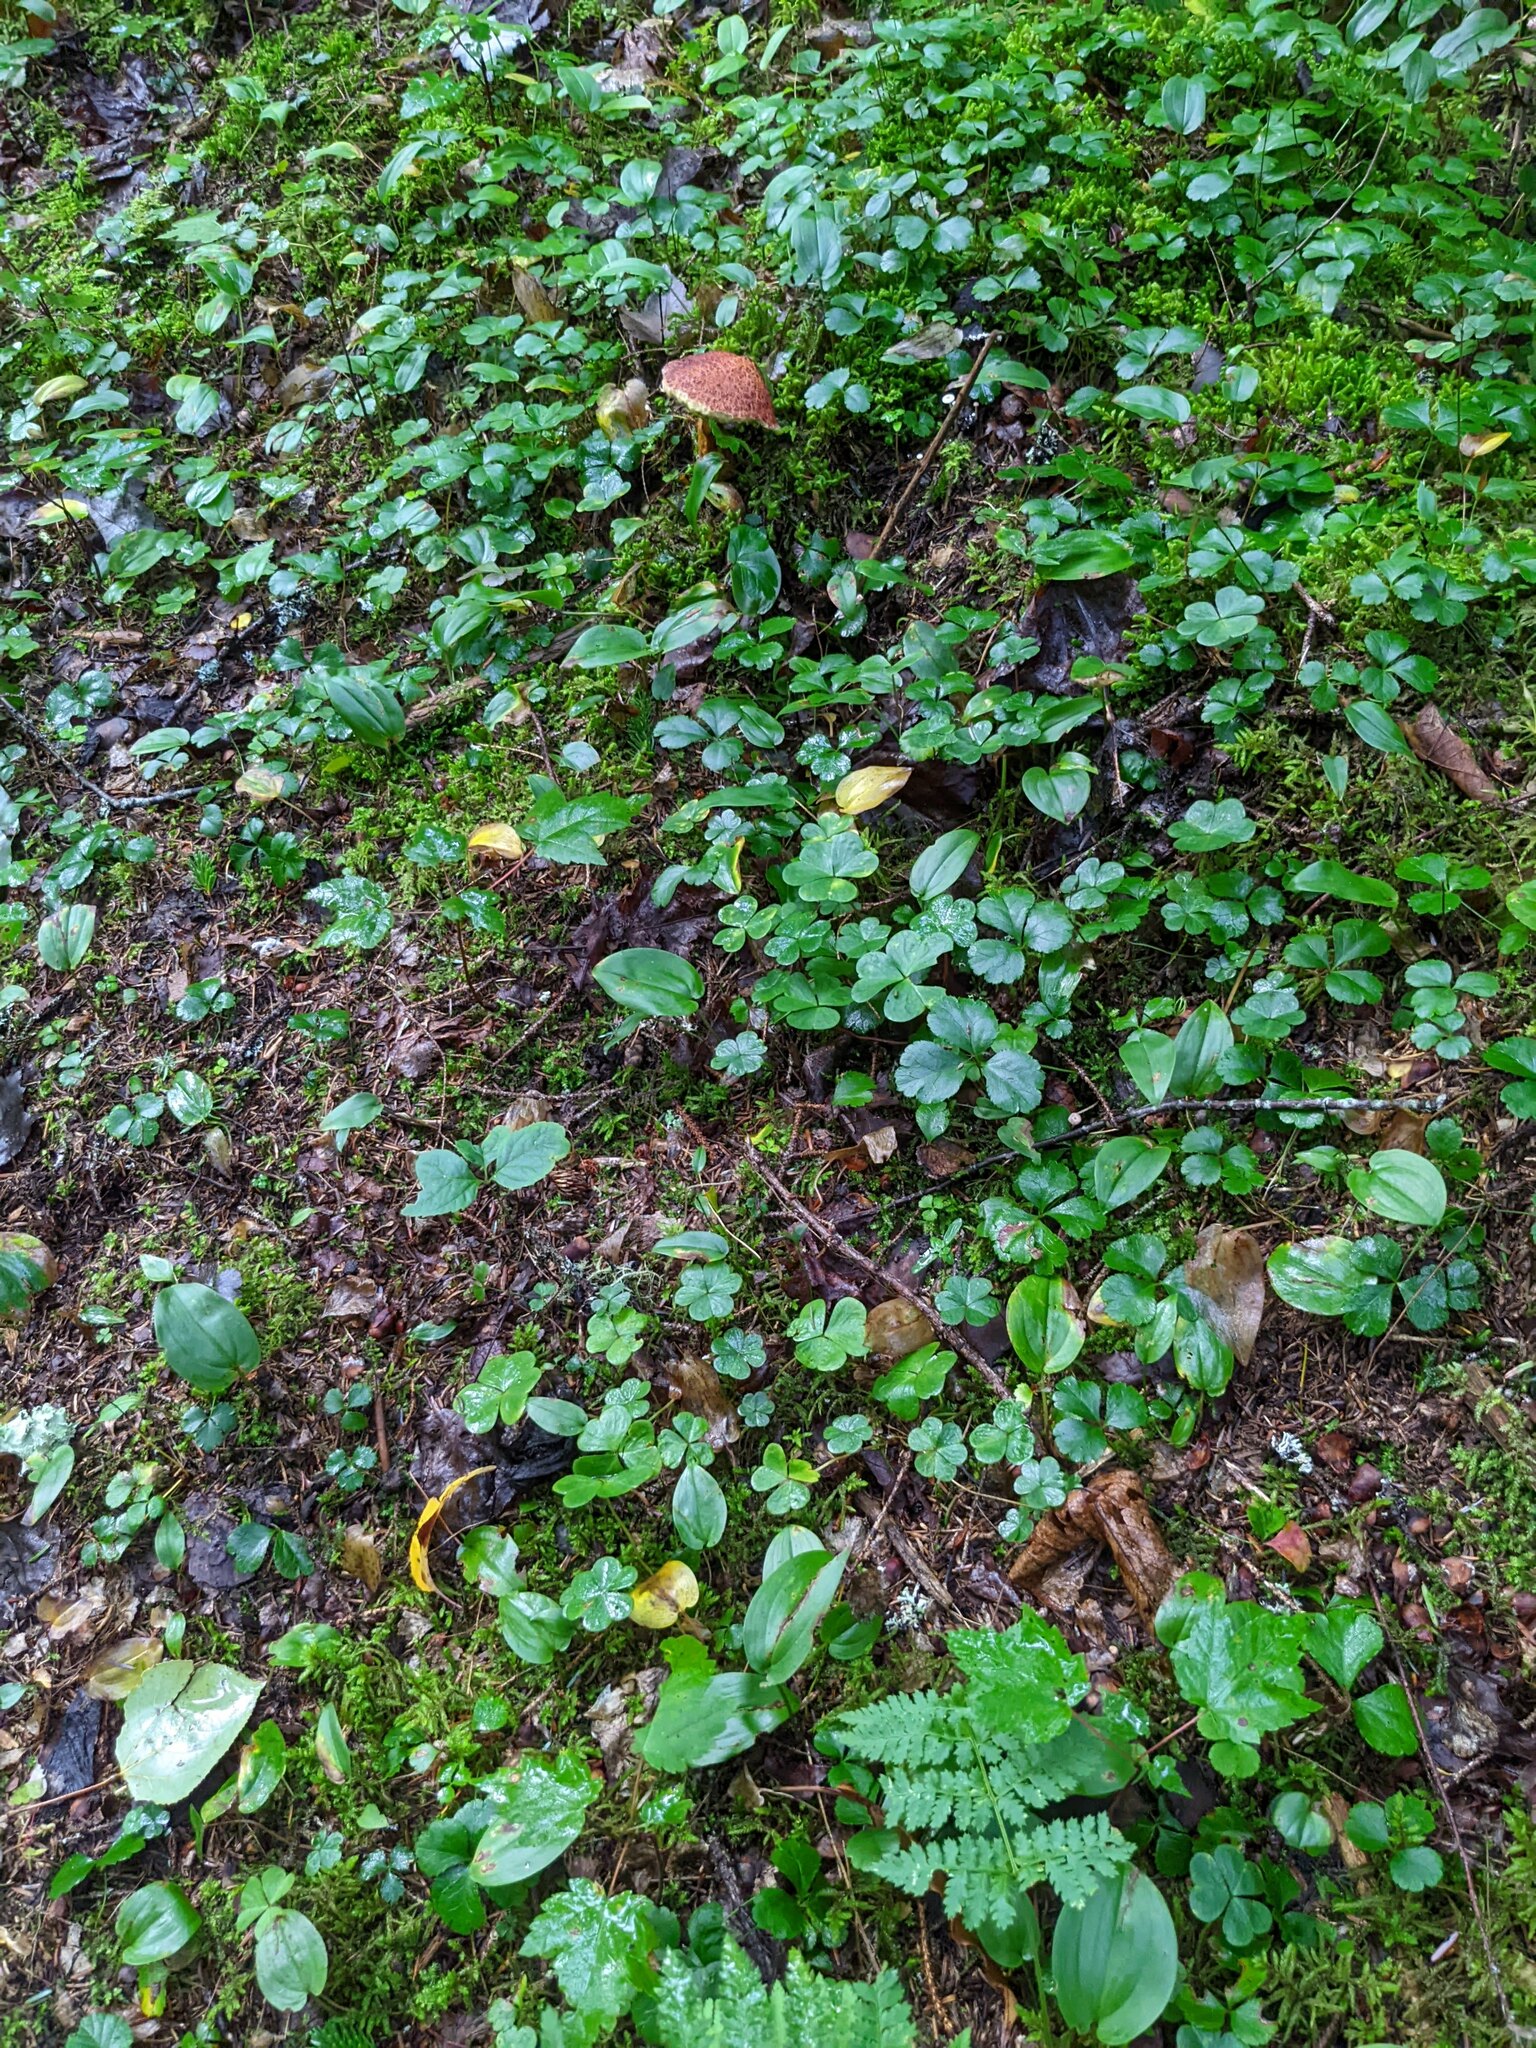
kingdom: Plantae
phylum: Tracheophyta
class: Magnoliopsida
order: Ranunculales
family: Ranunculaceae
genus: Coptis
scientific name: Coptis trifolia
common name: Canker-root
